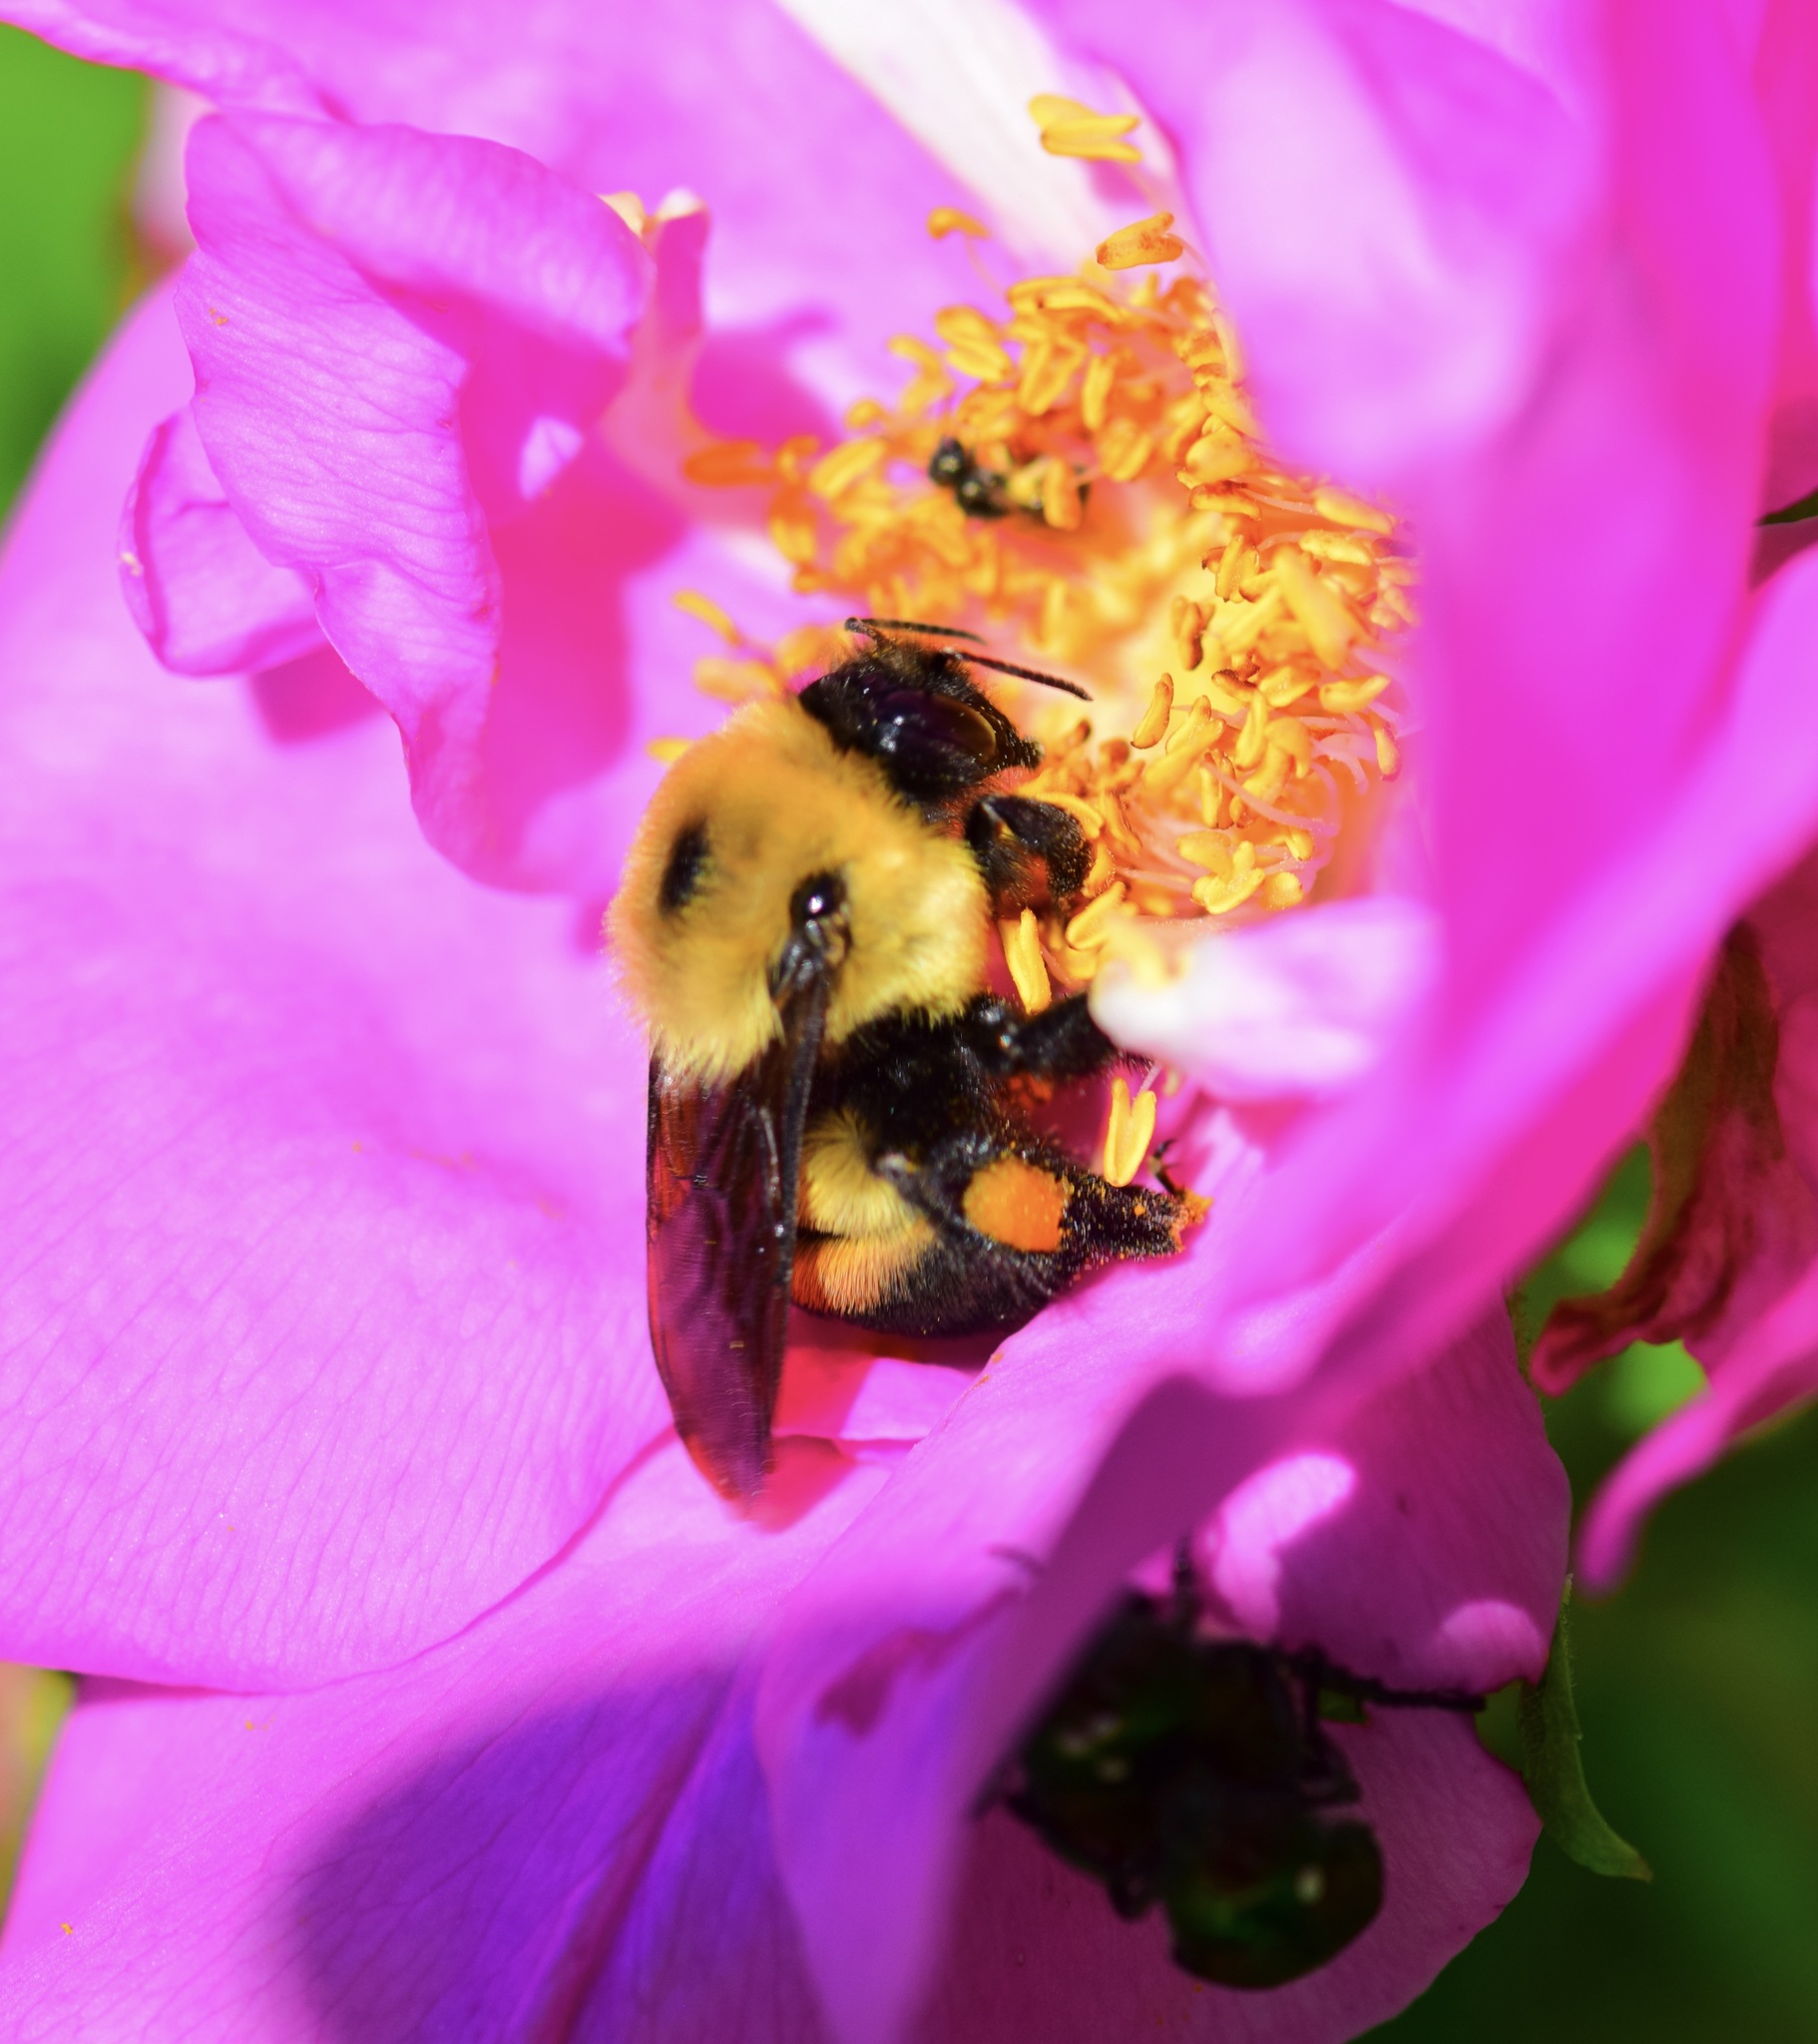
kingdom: Animalia
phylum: Arthropoda
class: Insecta
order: Hymenoptera
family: Apidae
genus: Bombus
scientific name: Bombus griseocollis
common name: Brown-belted bumble bee
